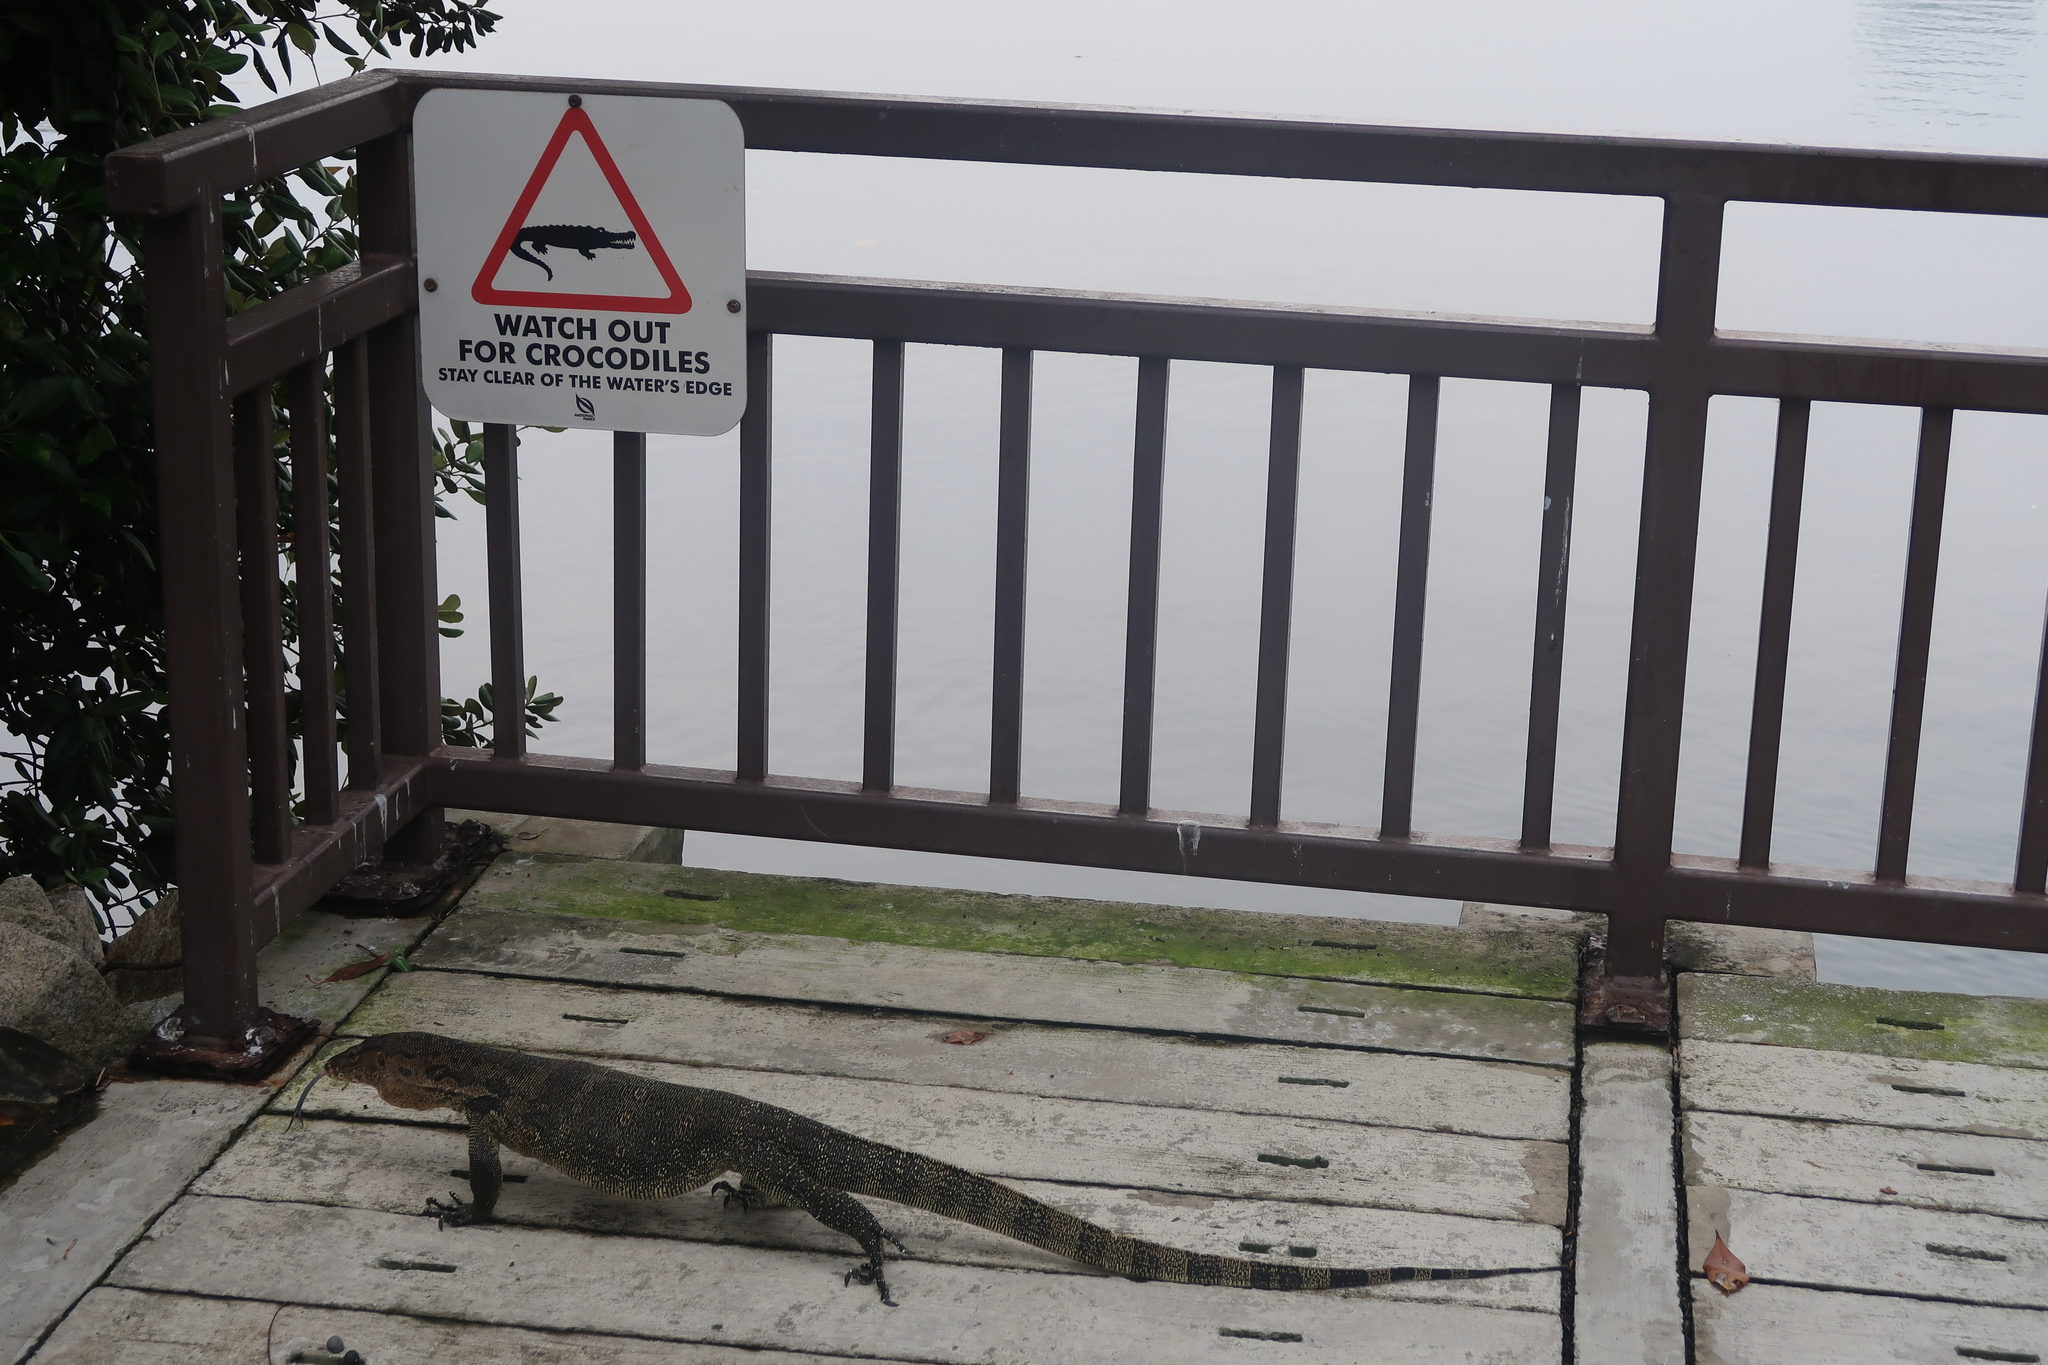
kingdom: Animalia
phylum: Chordata
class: Squamata
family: Varanidae
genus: Varanus
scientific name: Varanus salvator
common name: Common water monitor
